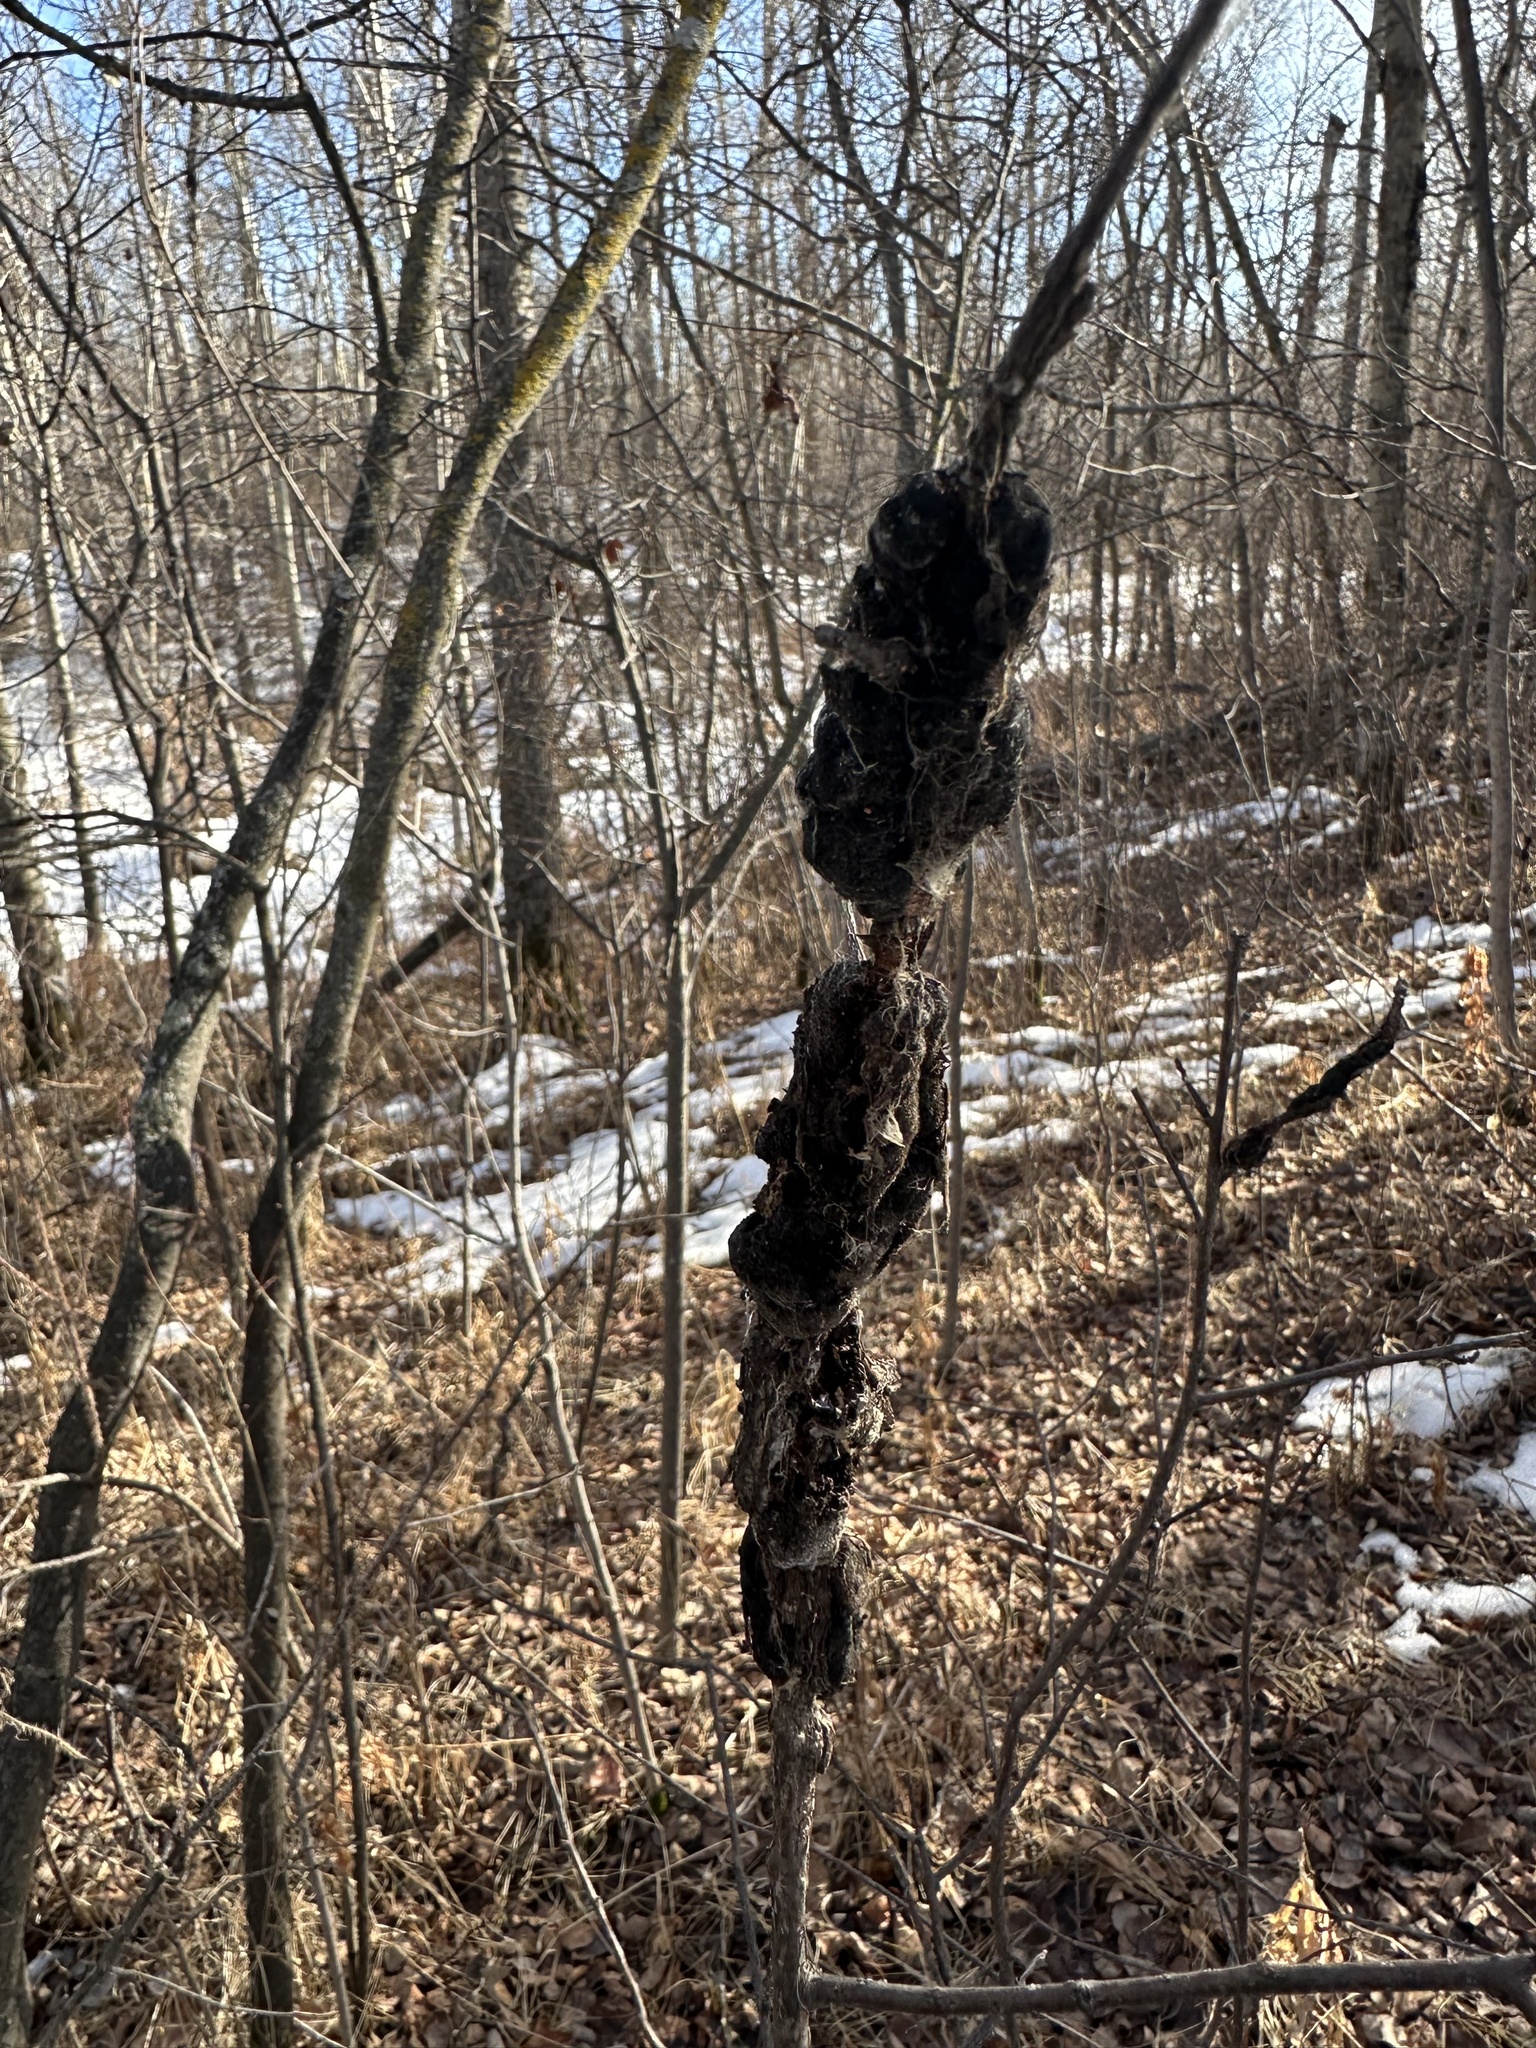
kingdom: Fungi
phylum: Ascomycota
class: Dothideomycetes
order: Venturiales
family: Venturiaceae
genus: Apiosporina
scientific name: Apiosporina morbosa
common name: Black knot
